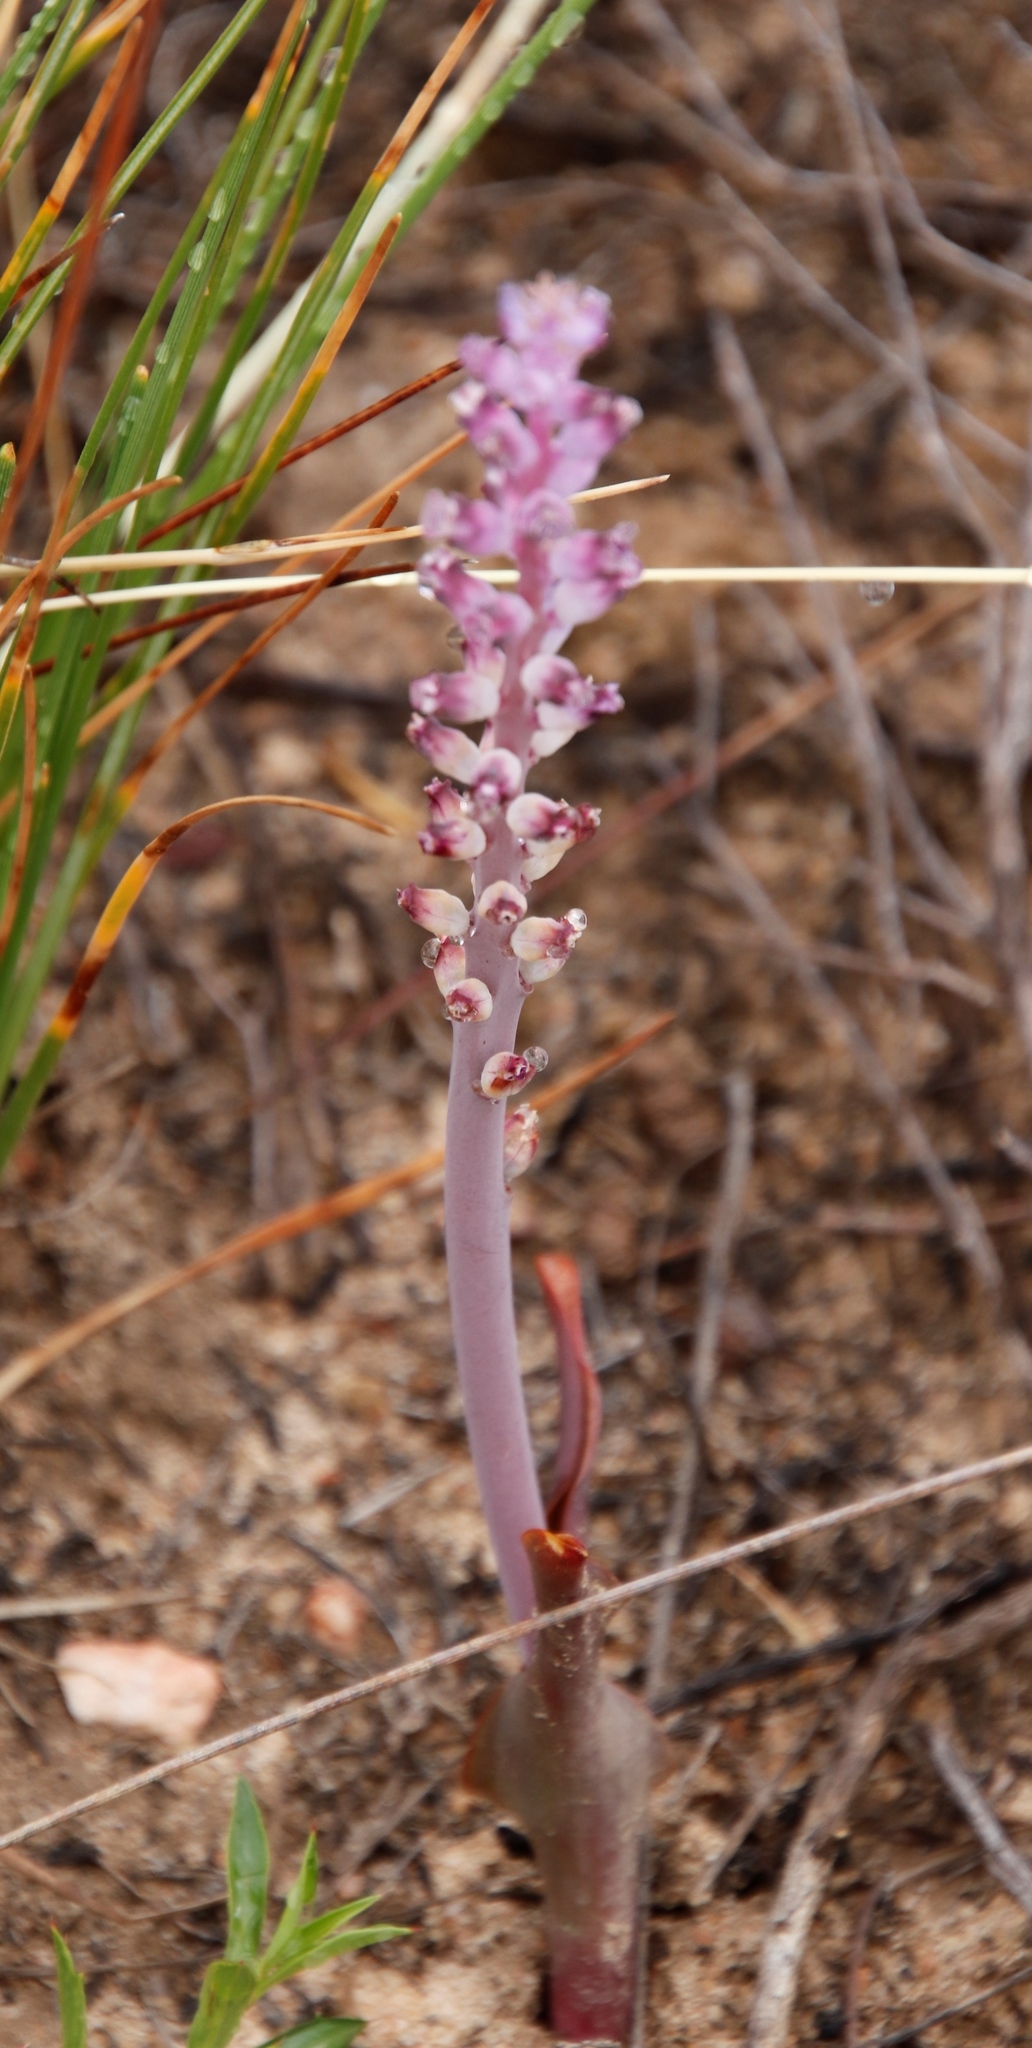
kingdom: Plantae
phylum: Tracheophyta
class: Liliopsida
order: Asparagales
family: Asparagaceae
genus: Lachenalia
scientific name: Lachenalia membranacea
